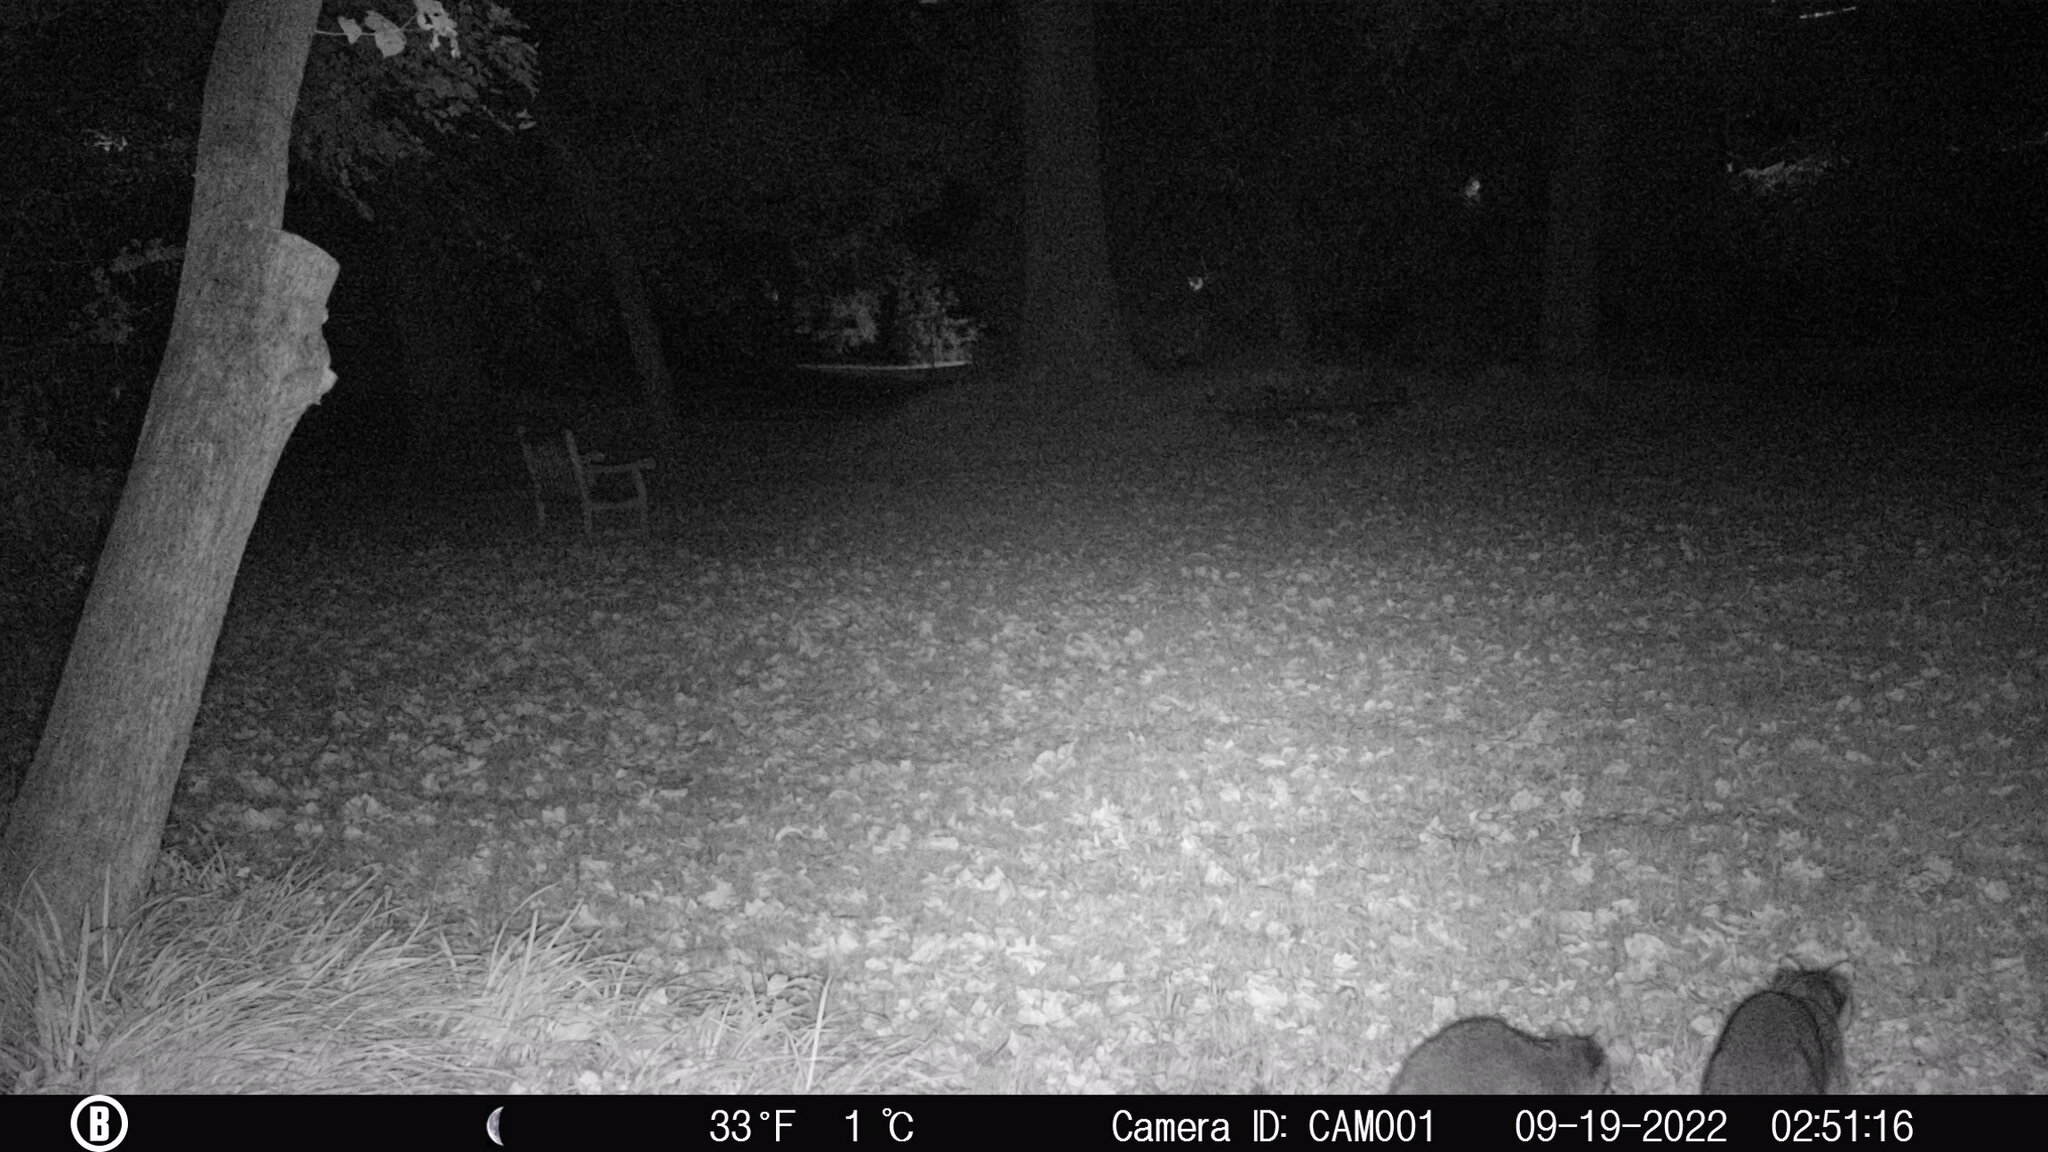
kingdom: Animalia
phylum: Chordata
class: Mammalia
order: Carnivora
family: Procyonidae
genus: Procyon
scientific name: Procyon lotor
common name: Raccoon
